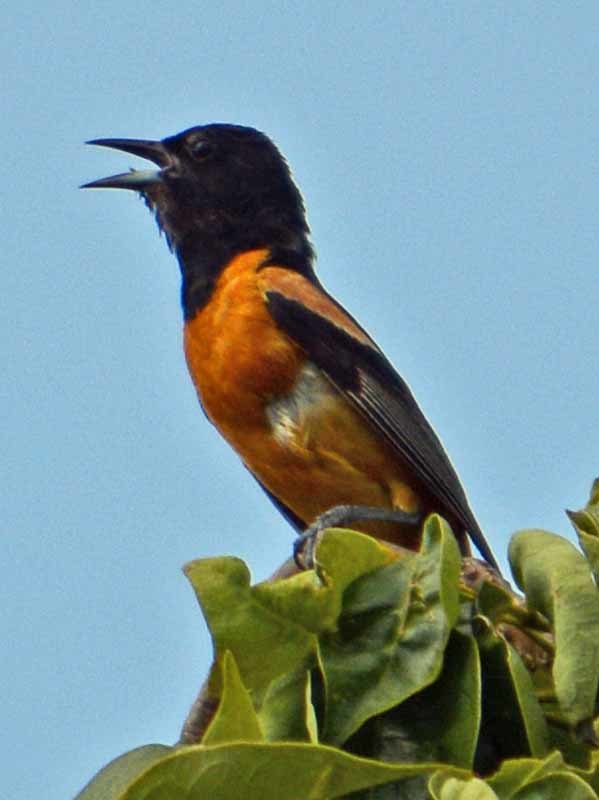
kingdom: Animalia
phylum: Chordata
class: Aves
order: Passeriformes
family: Icteridae
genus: Icterus
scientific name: Icterus spurius
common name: Orchard oriole
